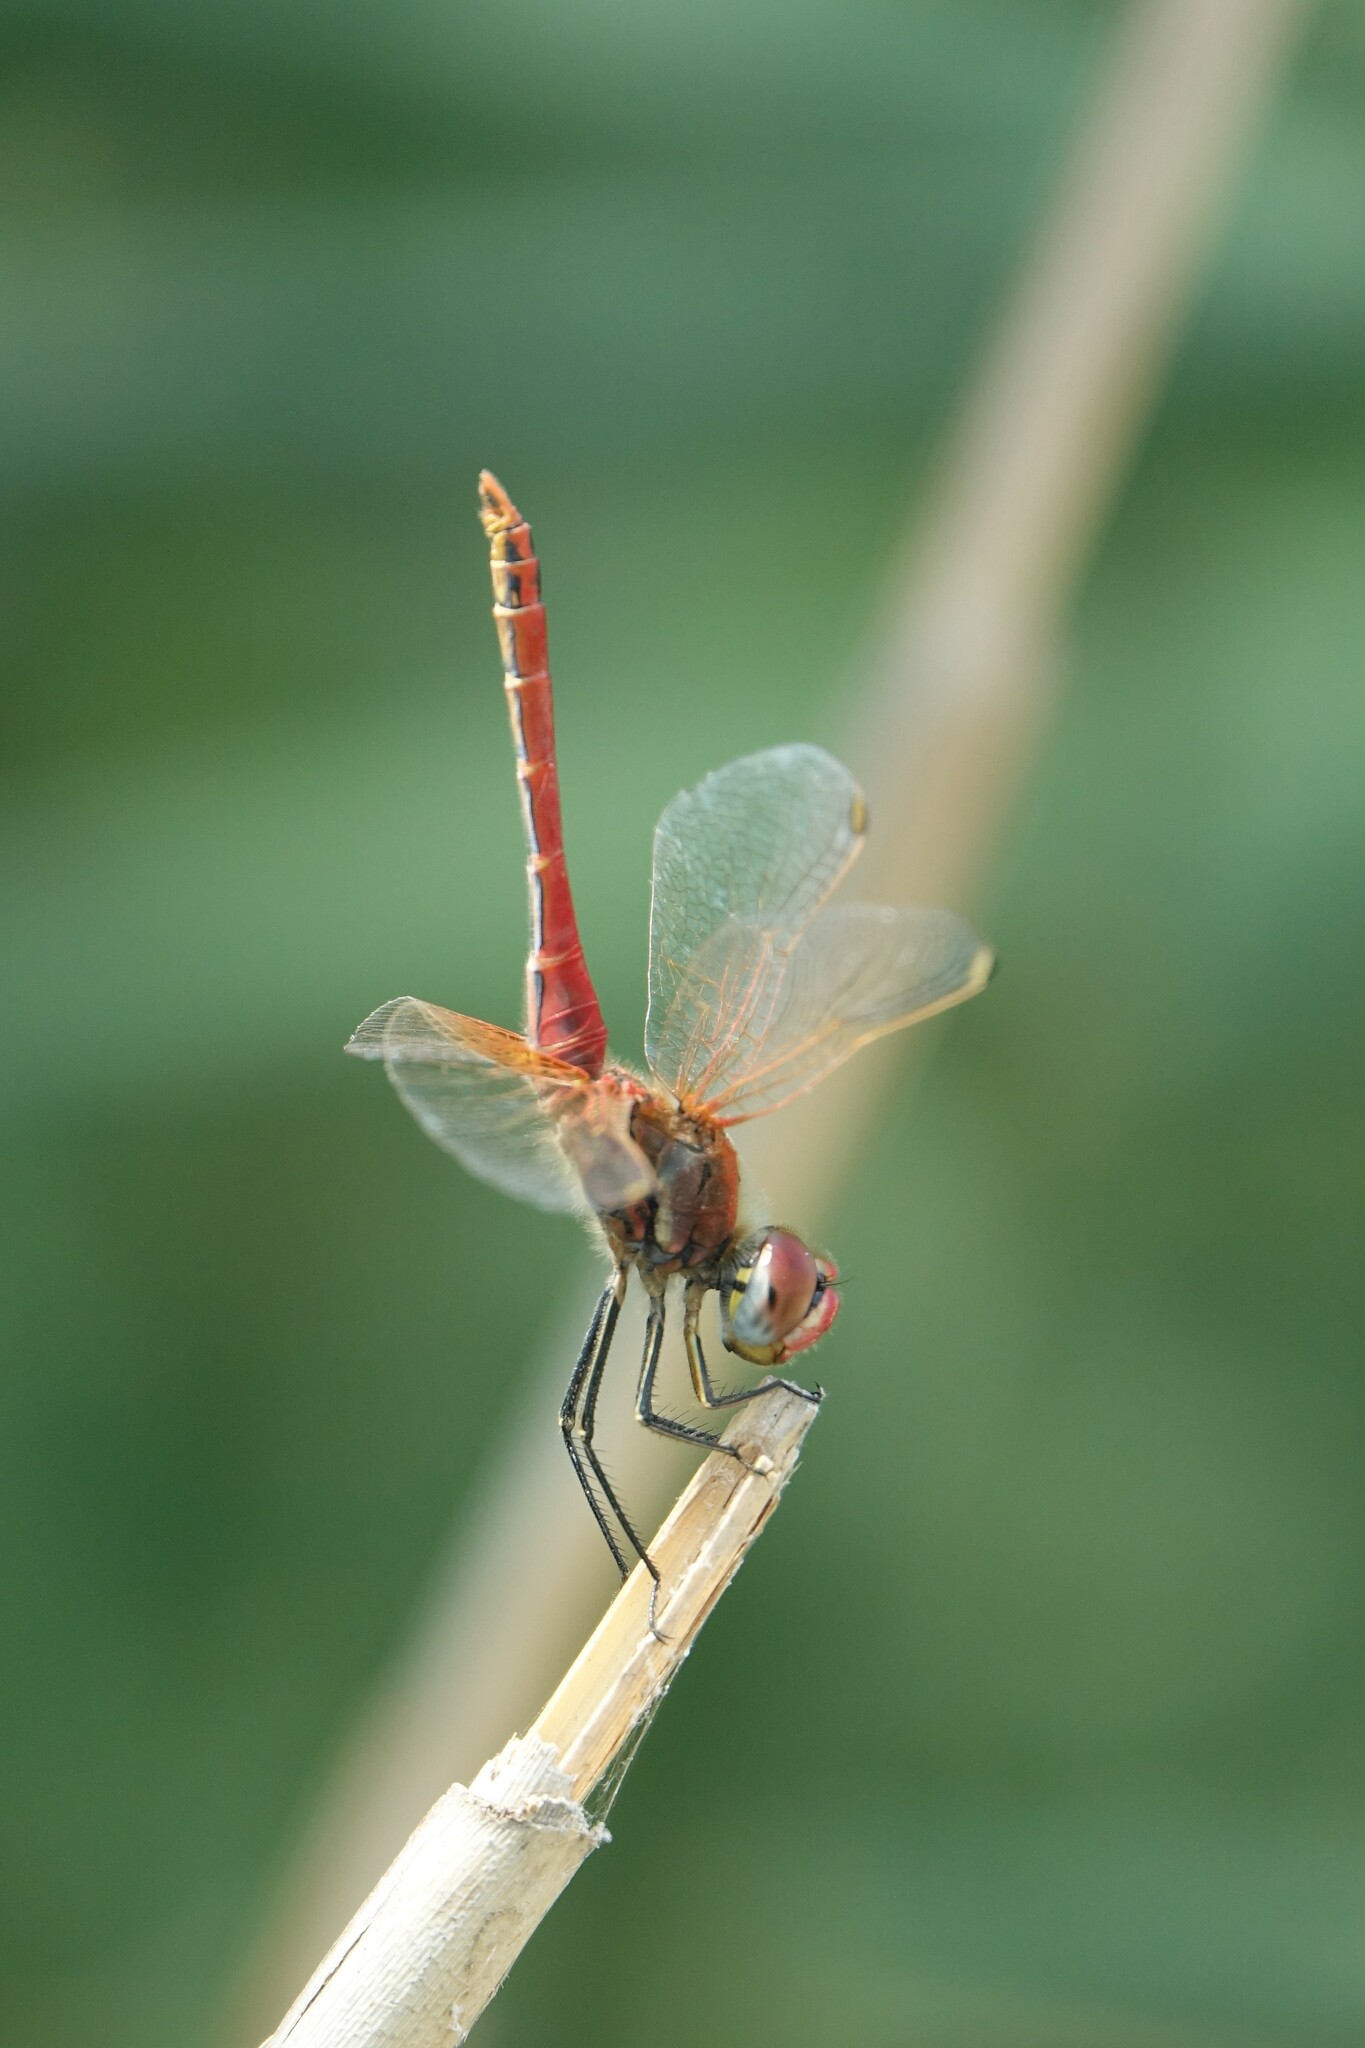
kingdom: Animalia
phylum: Arthropoda
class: Insecta
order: Odonata
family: Libellulidae
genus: Sympetrum
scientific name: Sympetrum fonscolombii
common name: Red-veined darter
